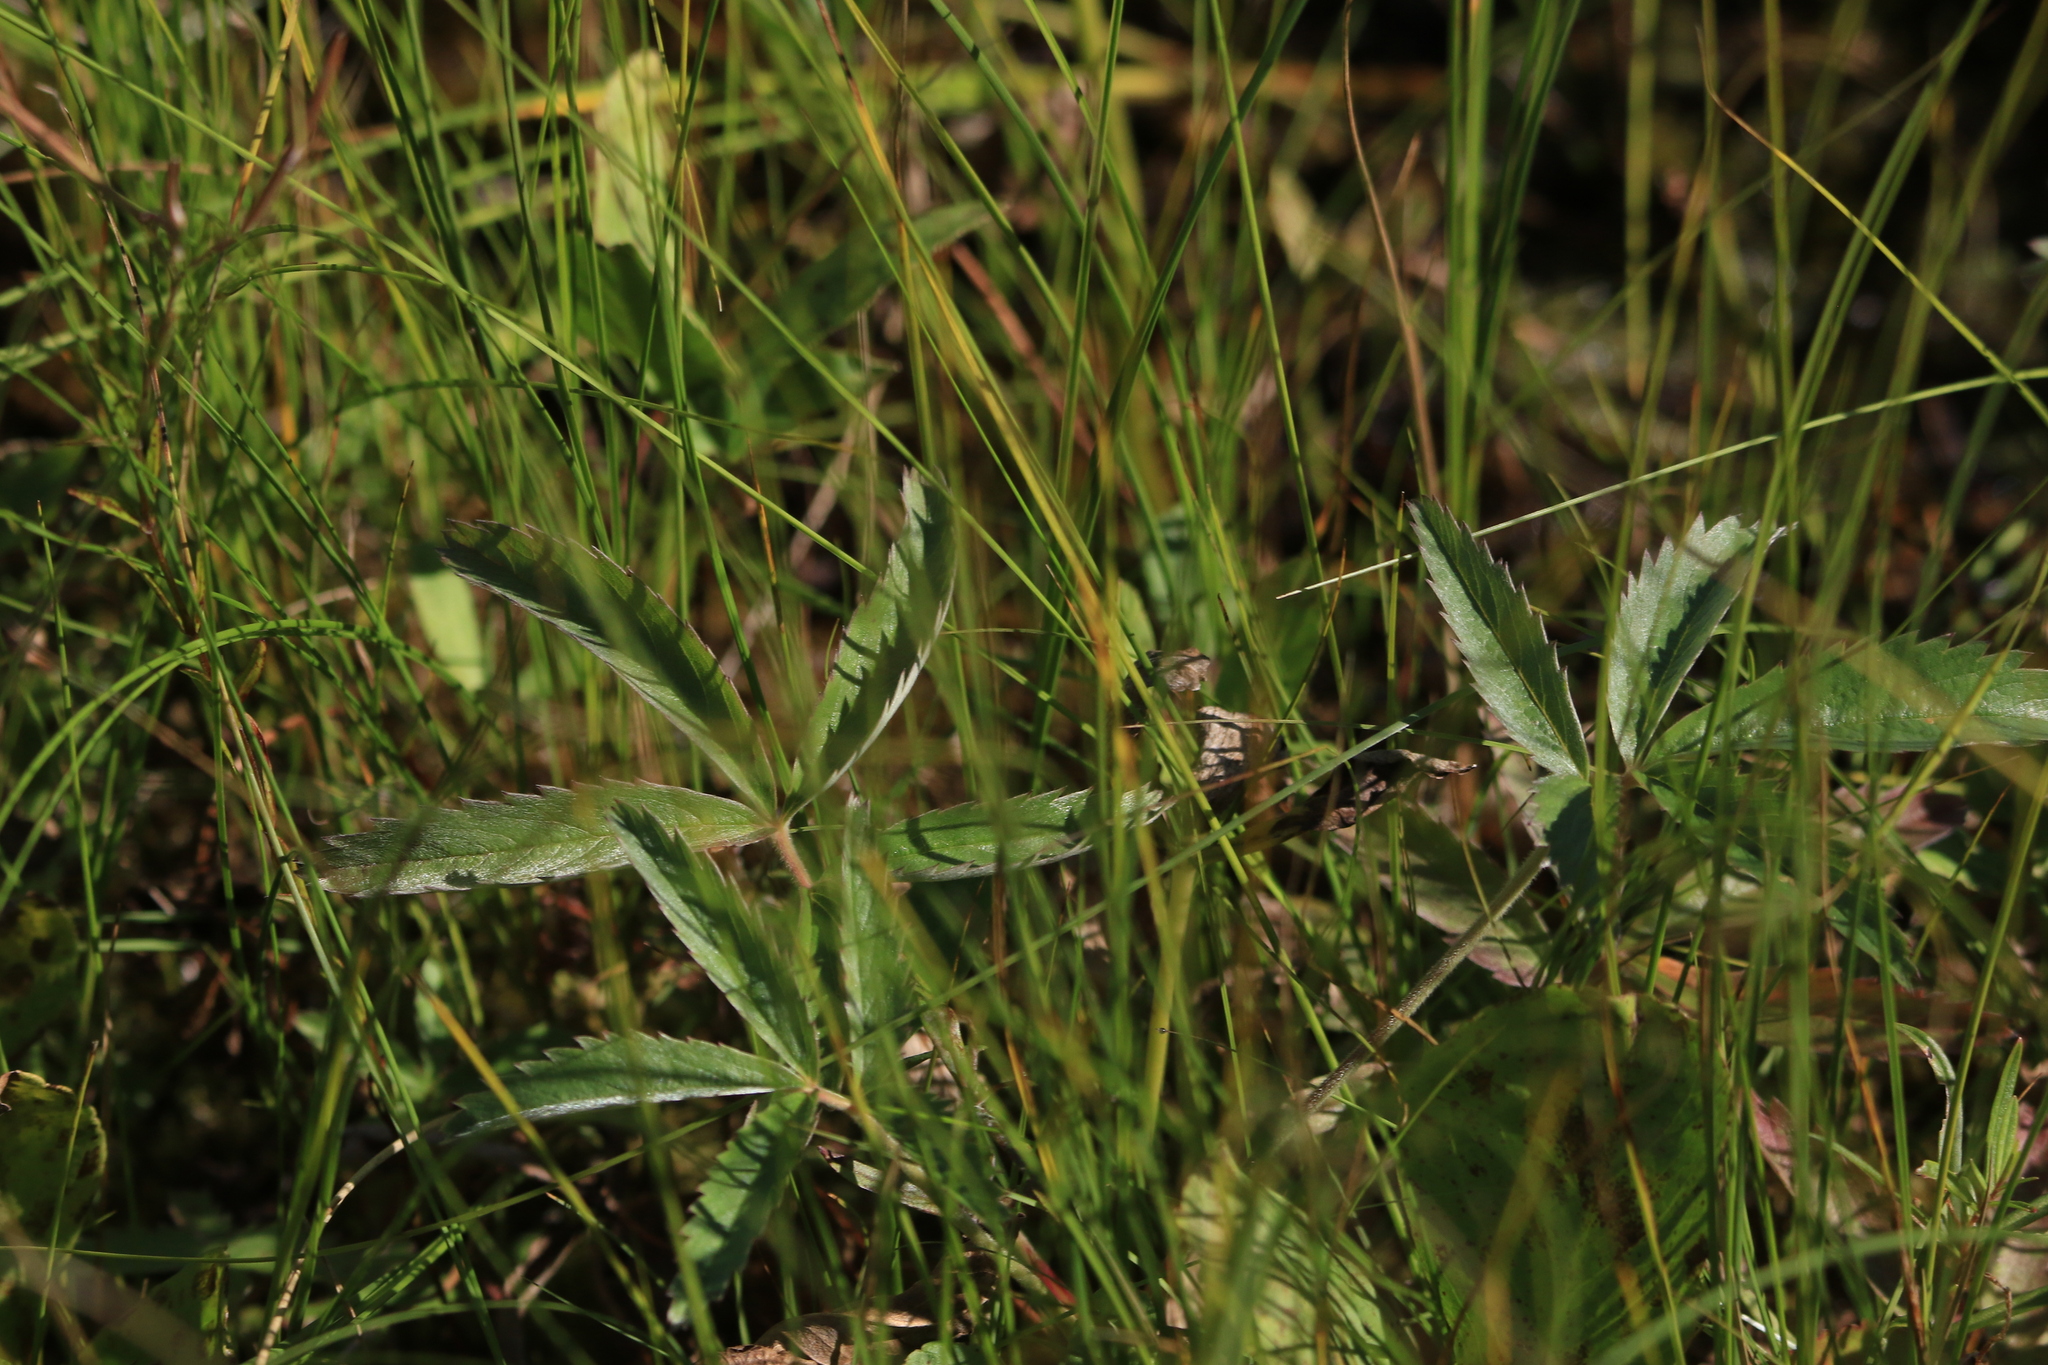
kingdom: Plantae
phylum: Tracheophyta
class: Magnoliopsida
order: Rosales
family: Rosaceae
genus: Comarum
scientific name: Comarum palustre
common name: Marsh cinquefoil
